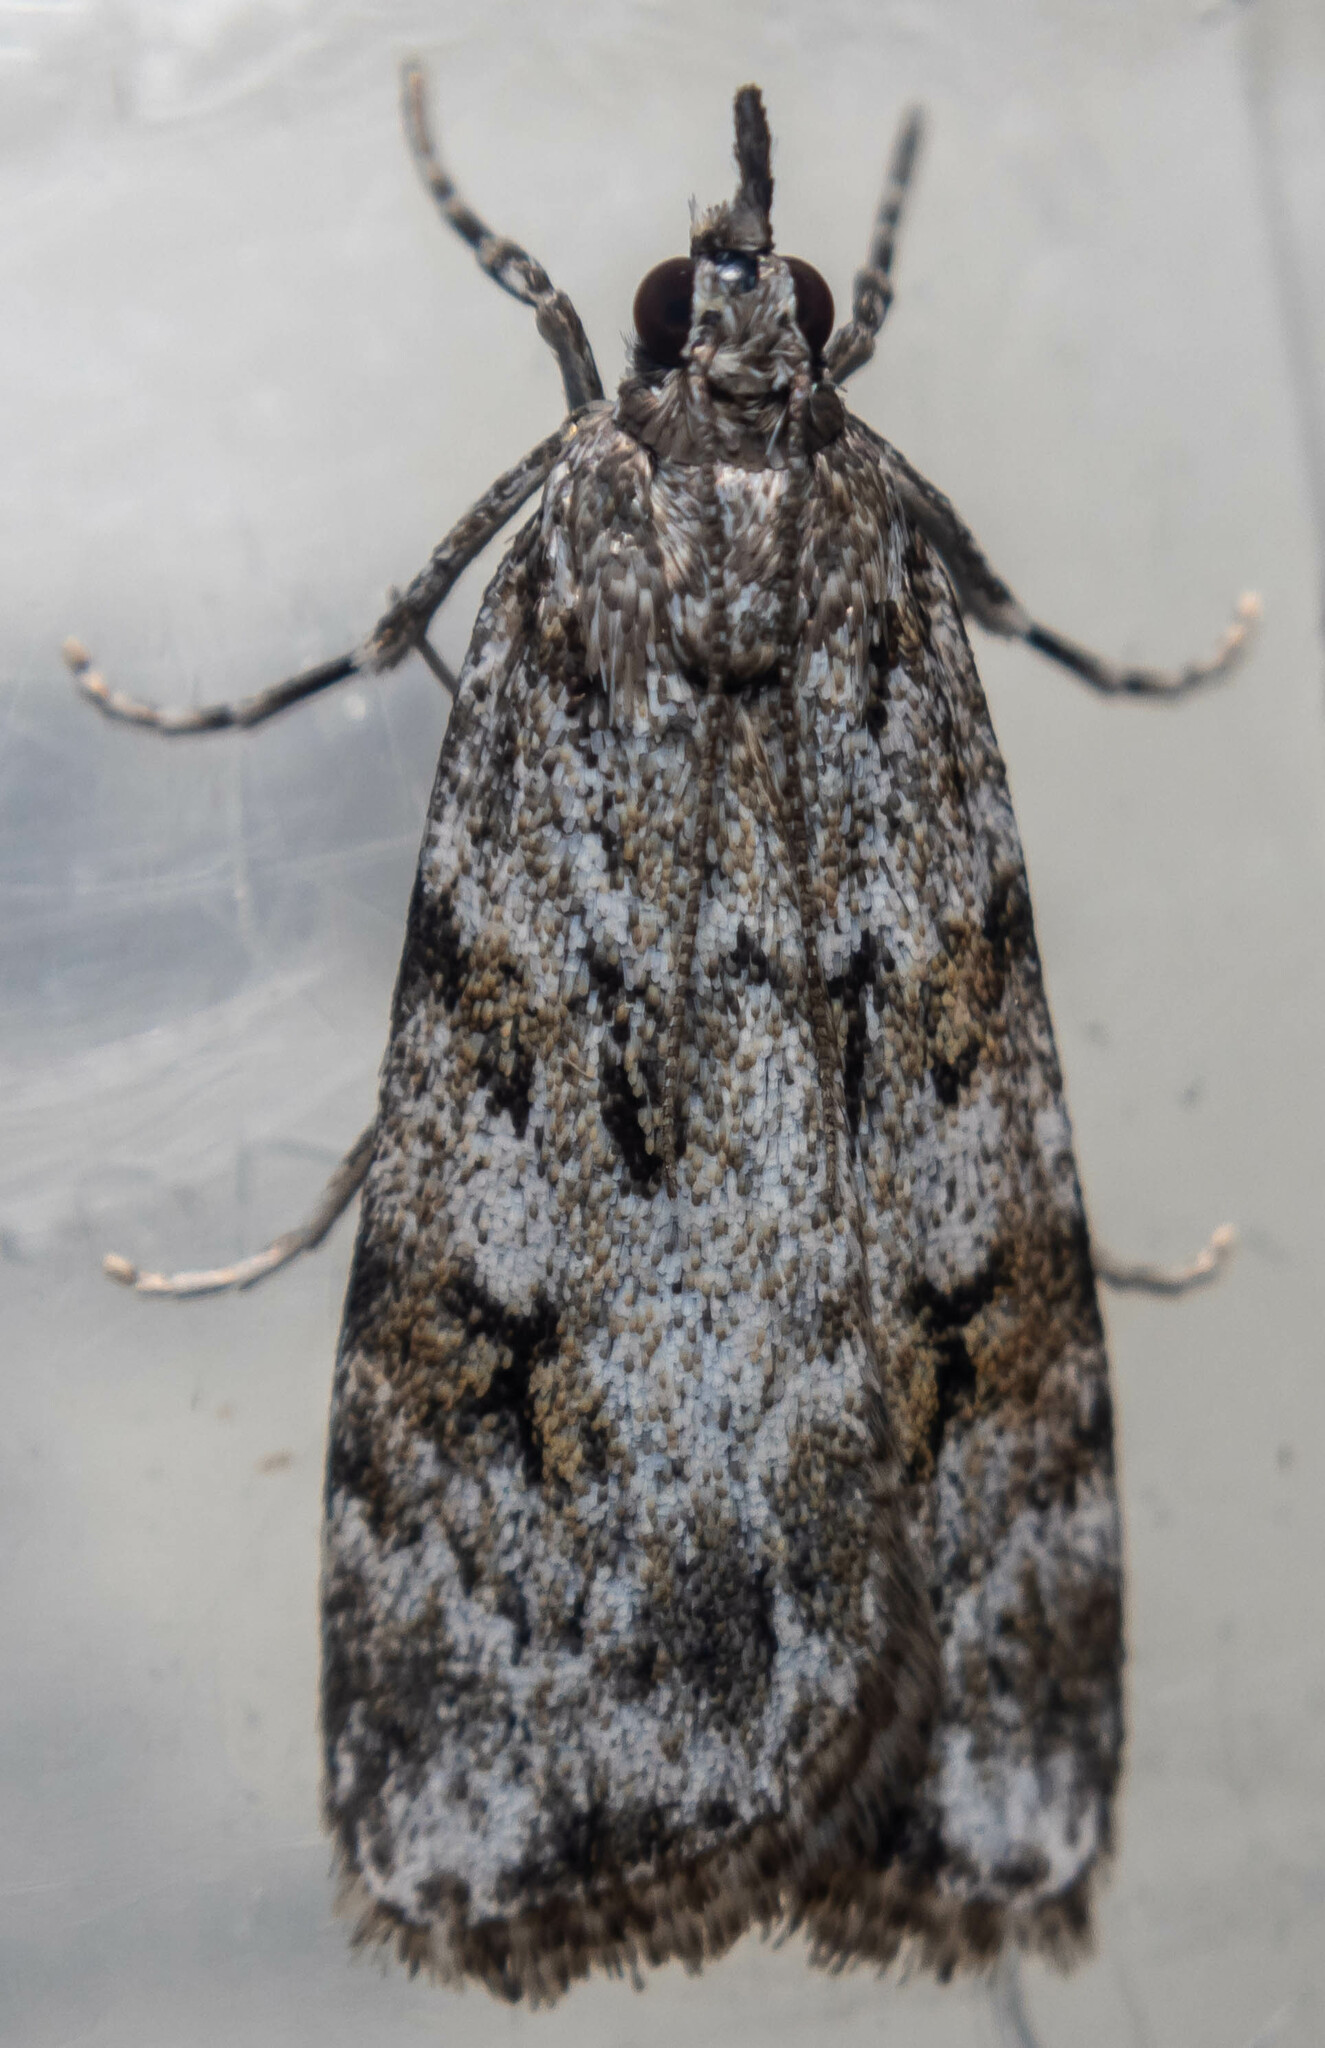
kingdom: Animalia
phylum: Arthropoda
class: Insecta
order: Lepidoptera
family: Crambidae
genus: Scoparia
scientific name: Scoparia ambigualis
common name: Common grey
